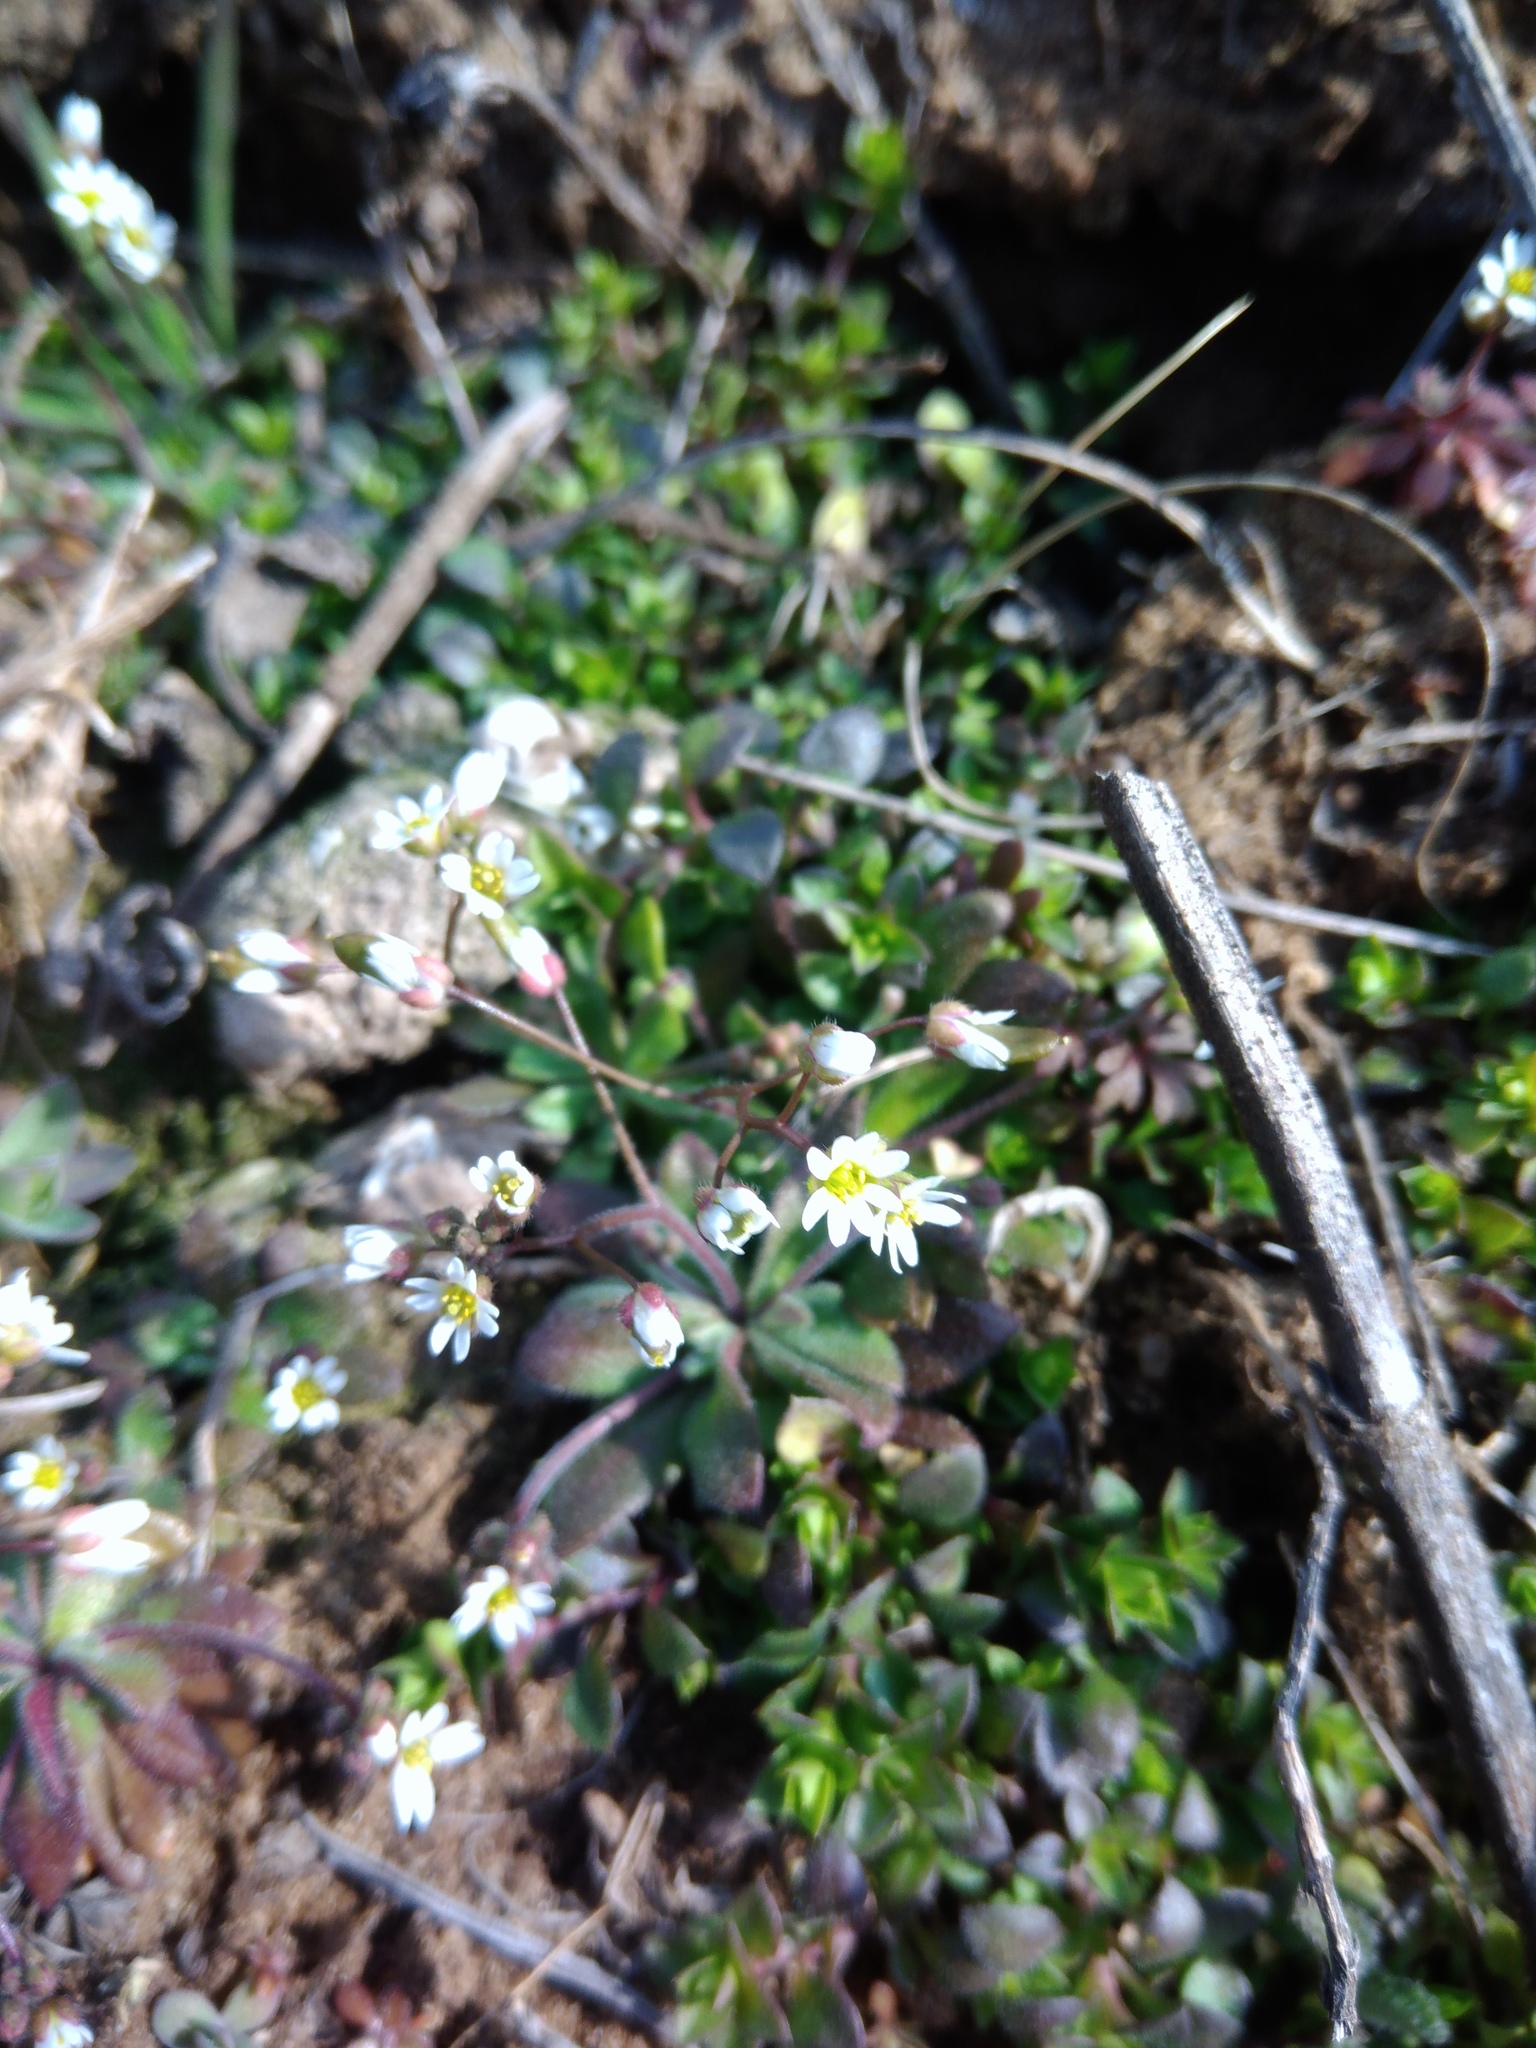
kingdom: Plantae
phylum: Tracheophyta
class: Magnoliopsida
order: Brassicales
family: Brassicaceae
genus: Draba
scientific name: Draba verna
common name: Spring draba
